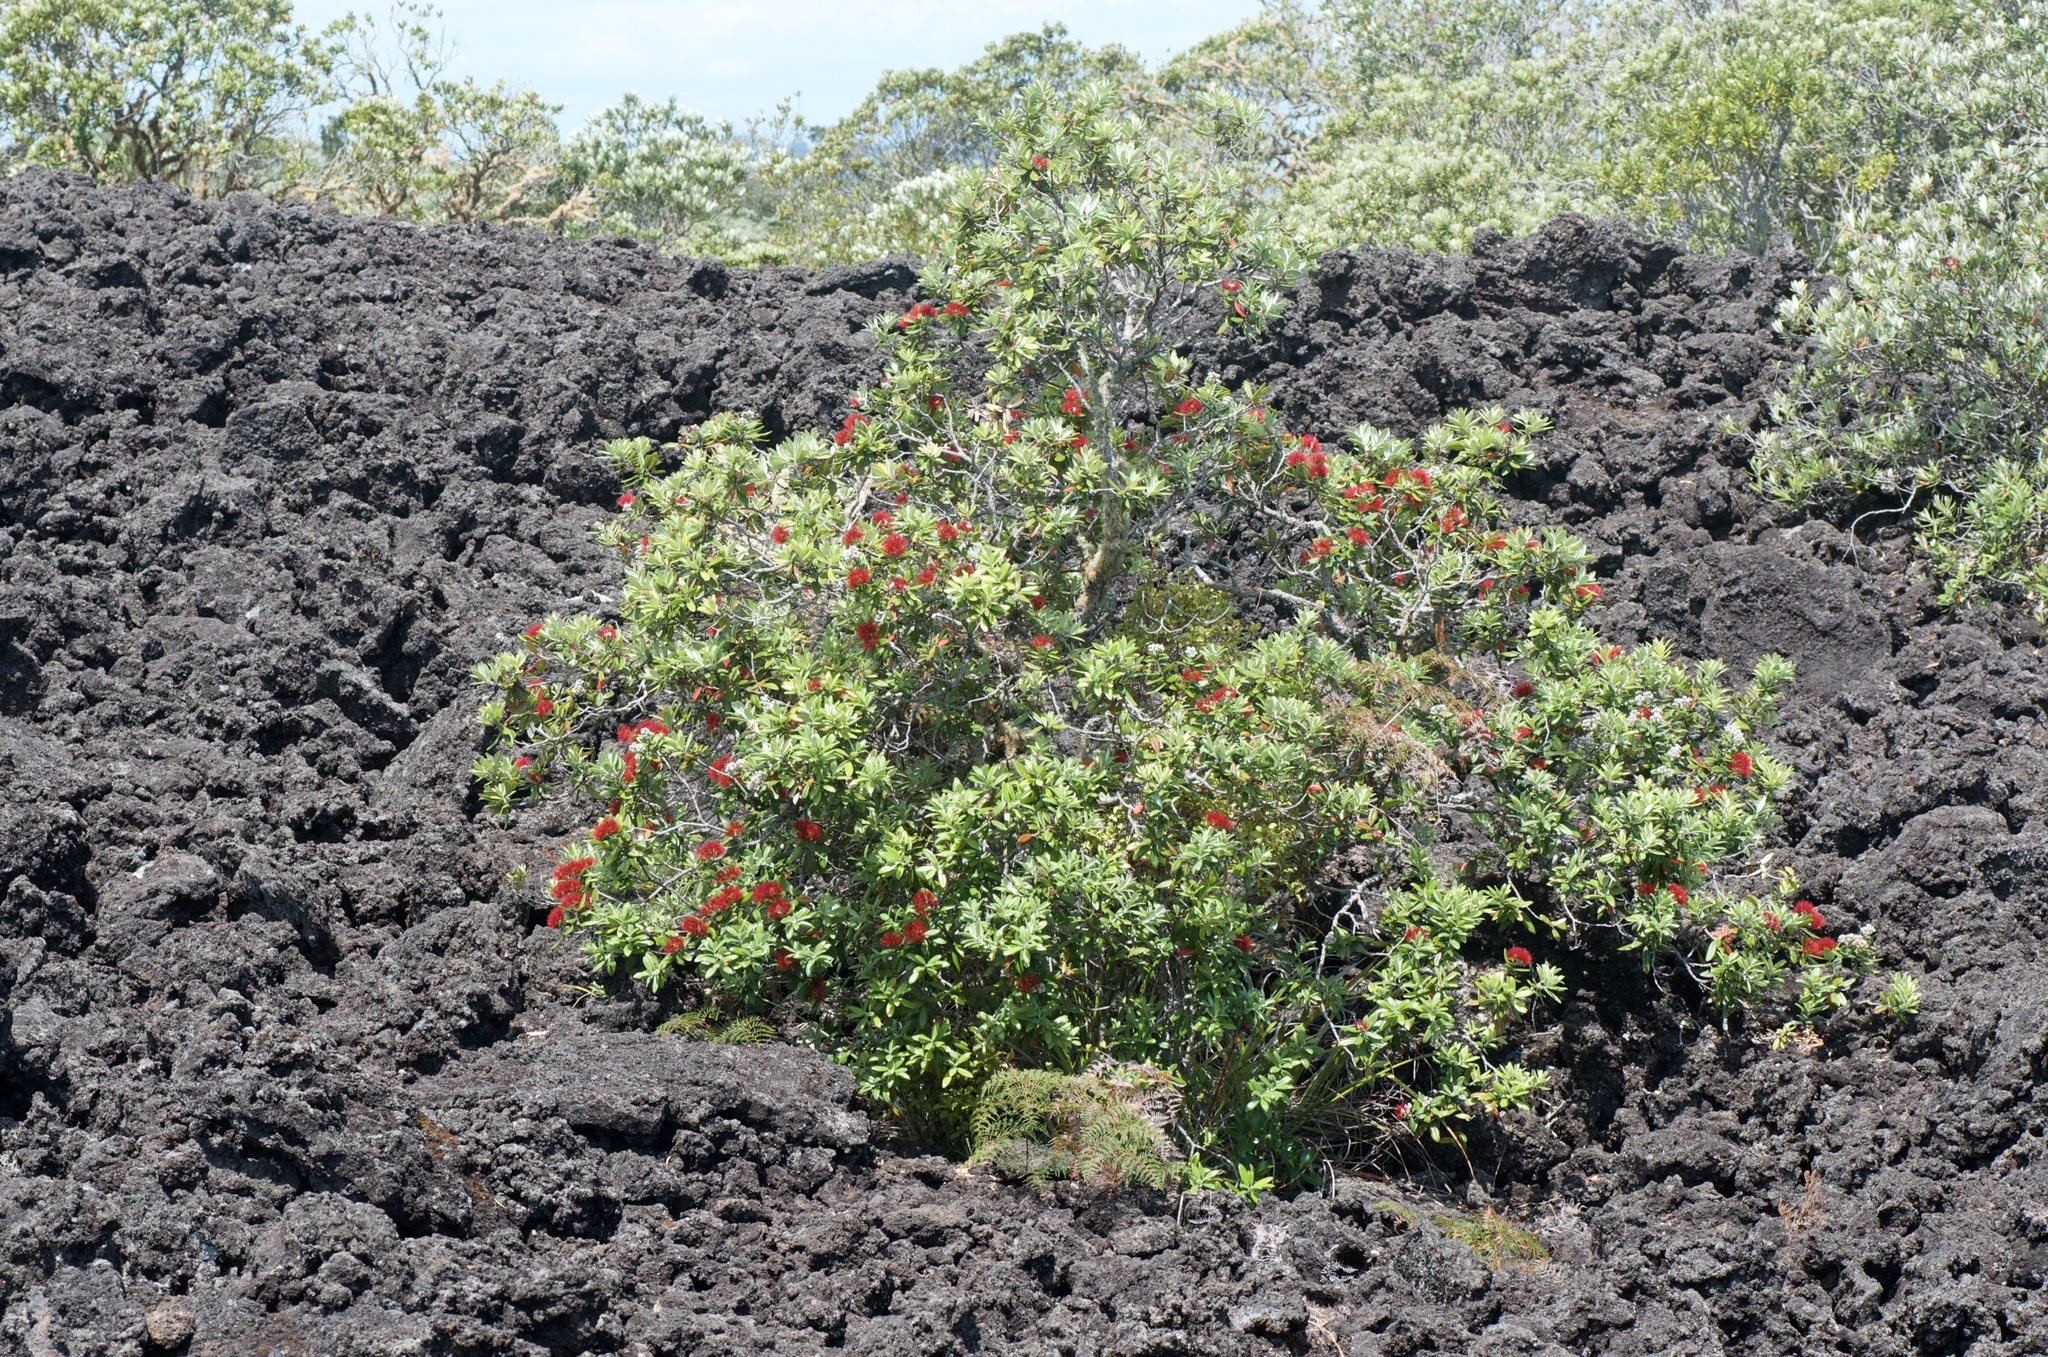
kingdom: Plantae
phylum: Tracheophyta
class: Magnoliopsida
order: Myrtales
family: Myrtaceae
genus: Metrosideros
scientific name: Metrosideros excelsa
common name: New zealand christmastree
